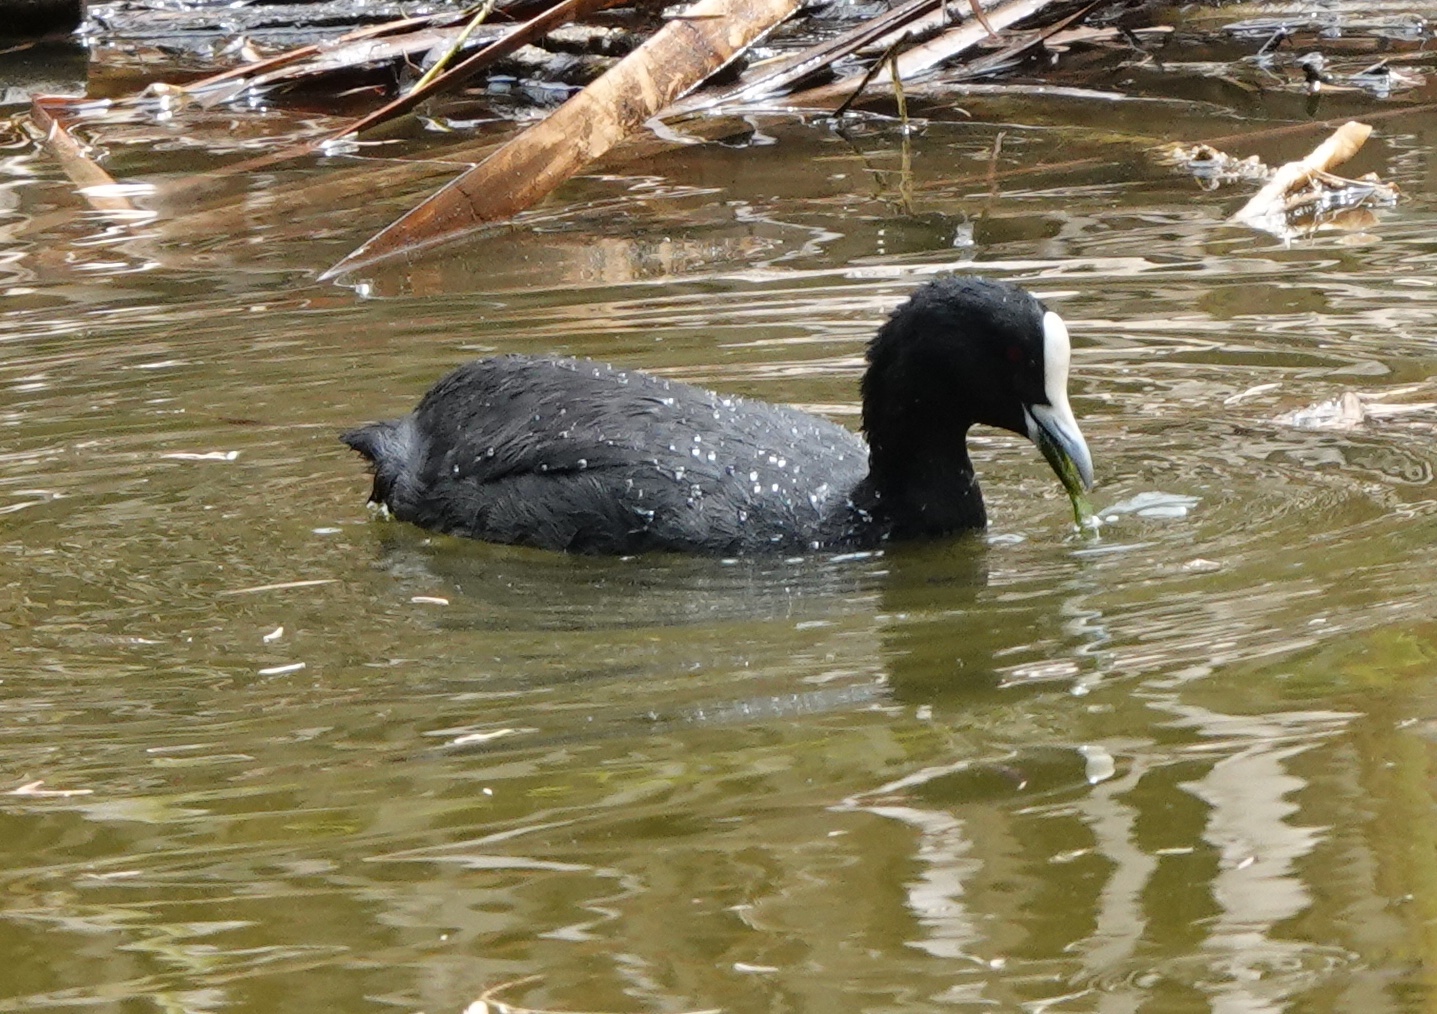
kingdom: Animalia
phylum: Chordata
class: Aves
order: Gruiformes
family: Rallidae
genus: Fulica
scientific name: Fulica atra
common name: Eurasian coot
